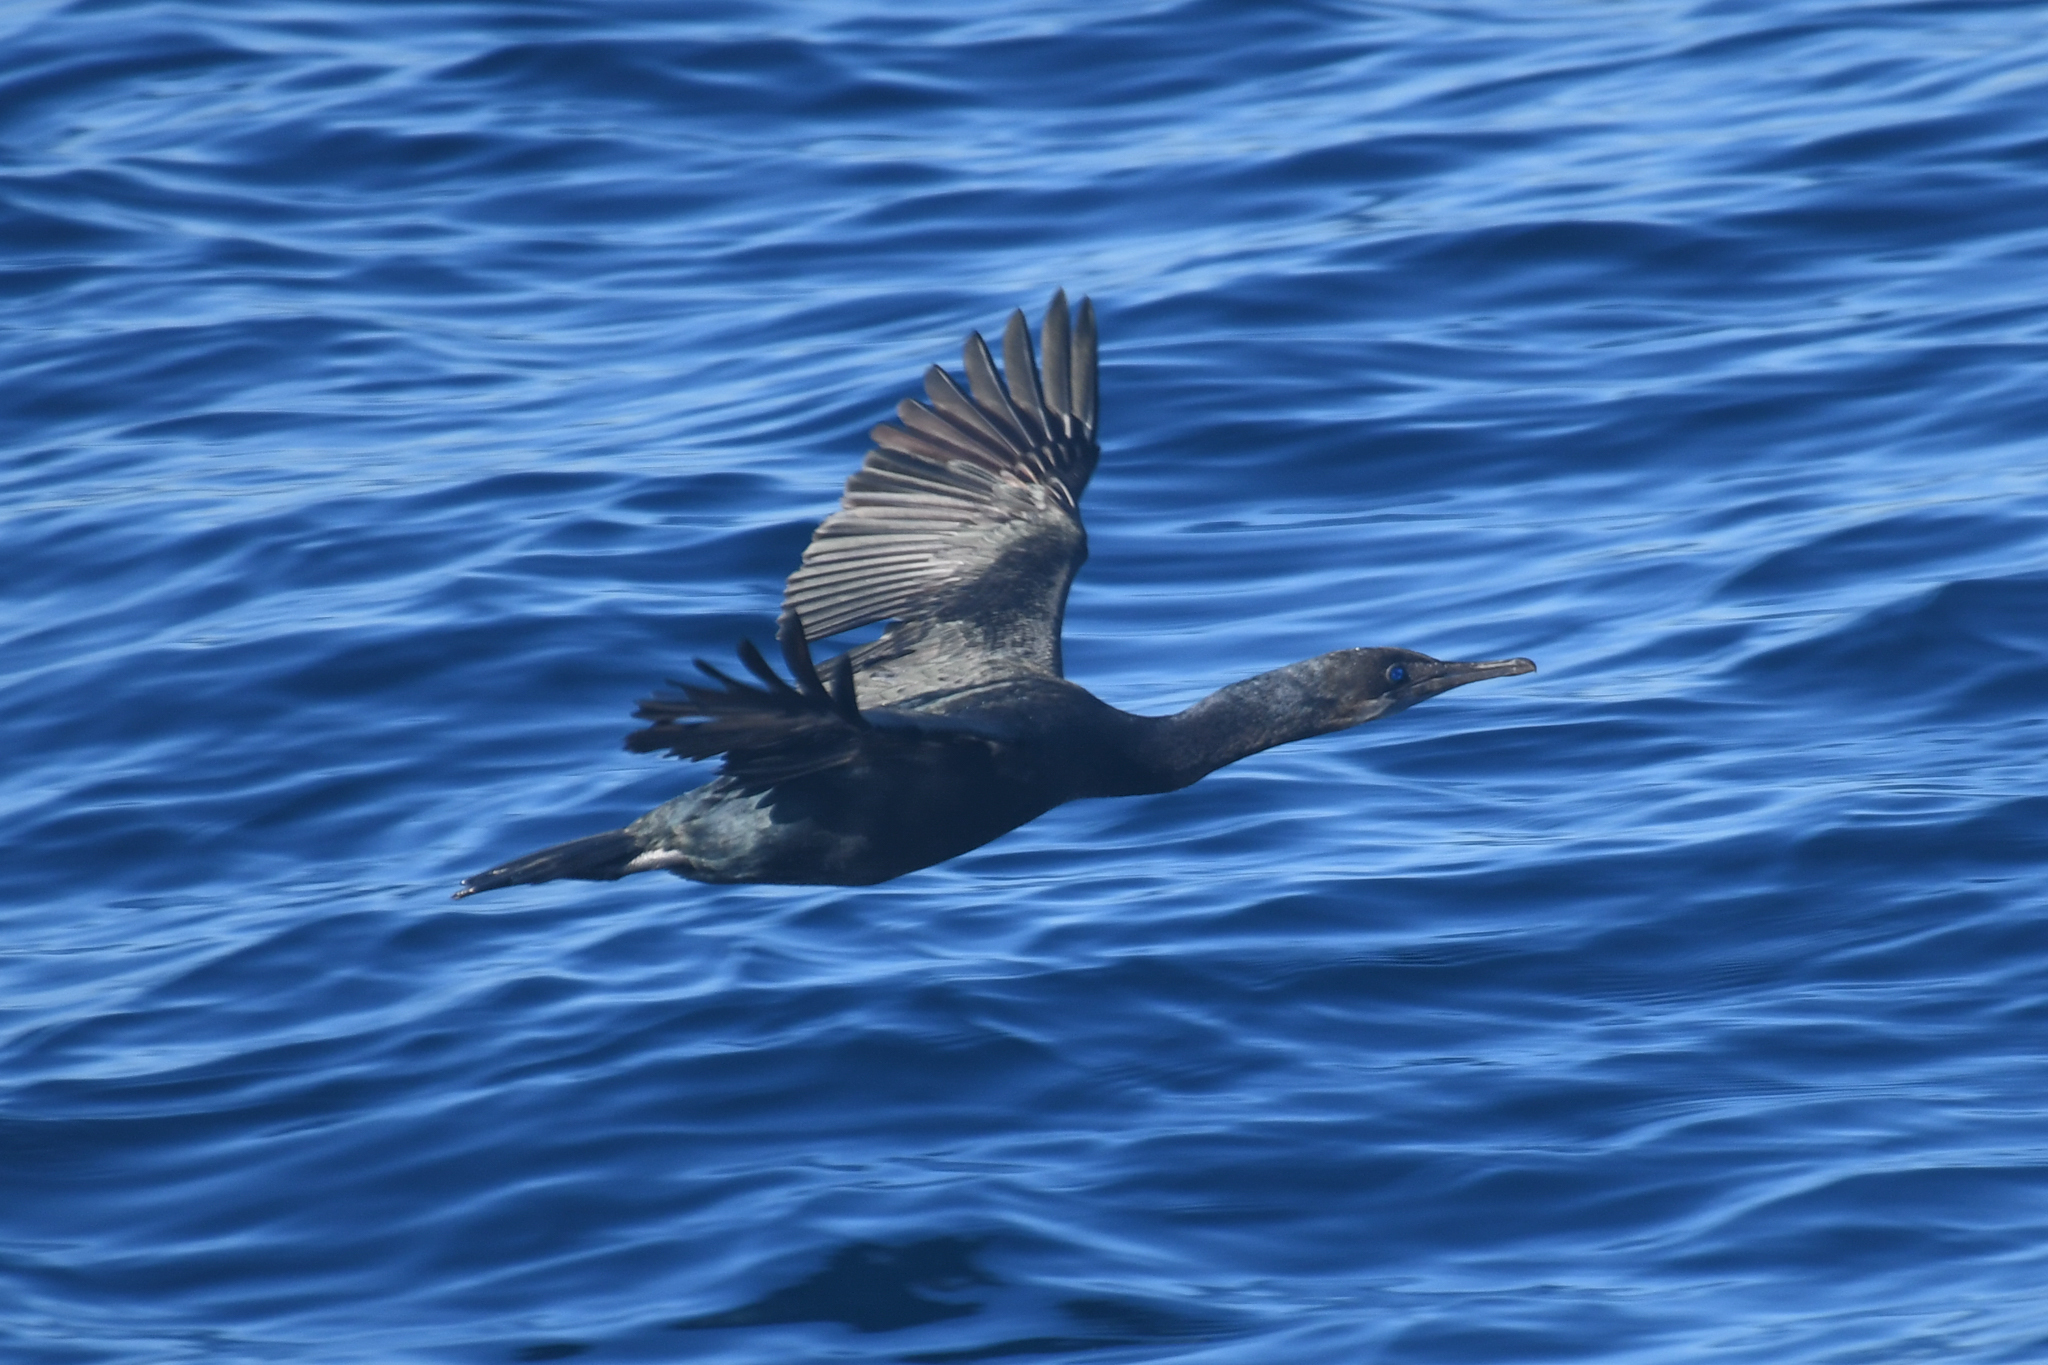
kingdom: Animalia
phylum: Chordata
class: Aves
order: Suliformes
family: Phalacrocoracidae
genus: Urile
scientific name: Urile penicillatus
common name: Brandt's cormorant
